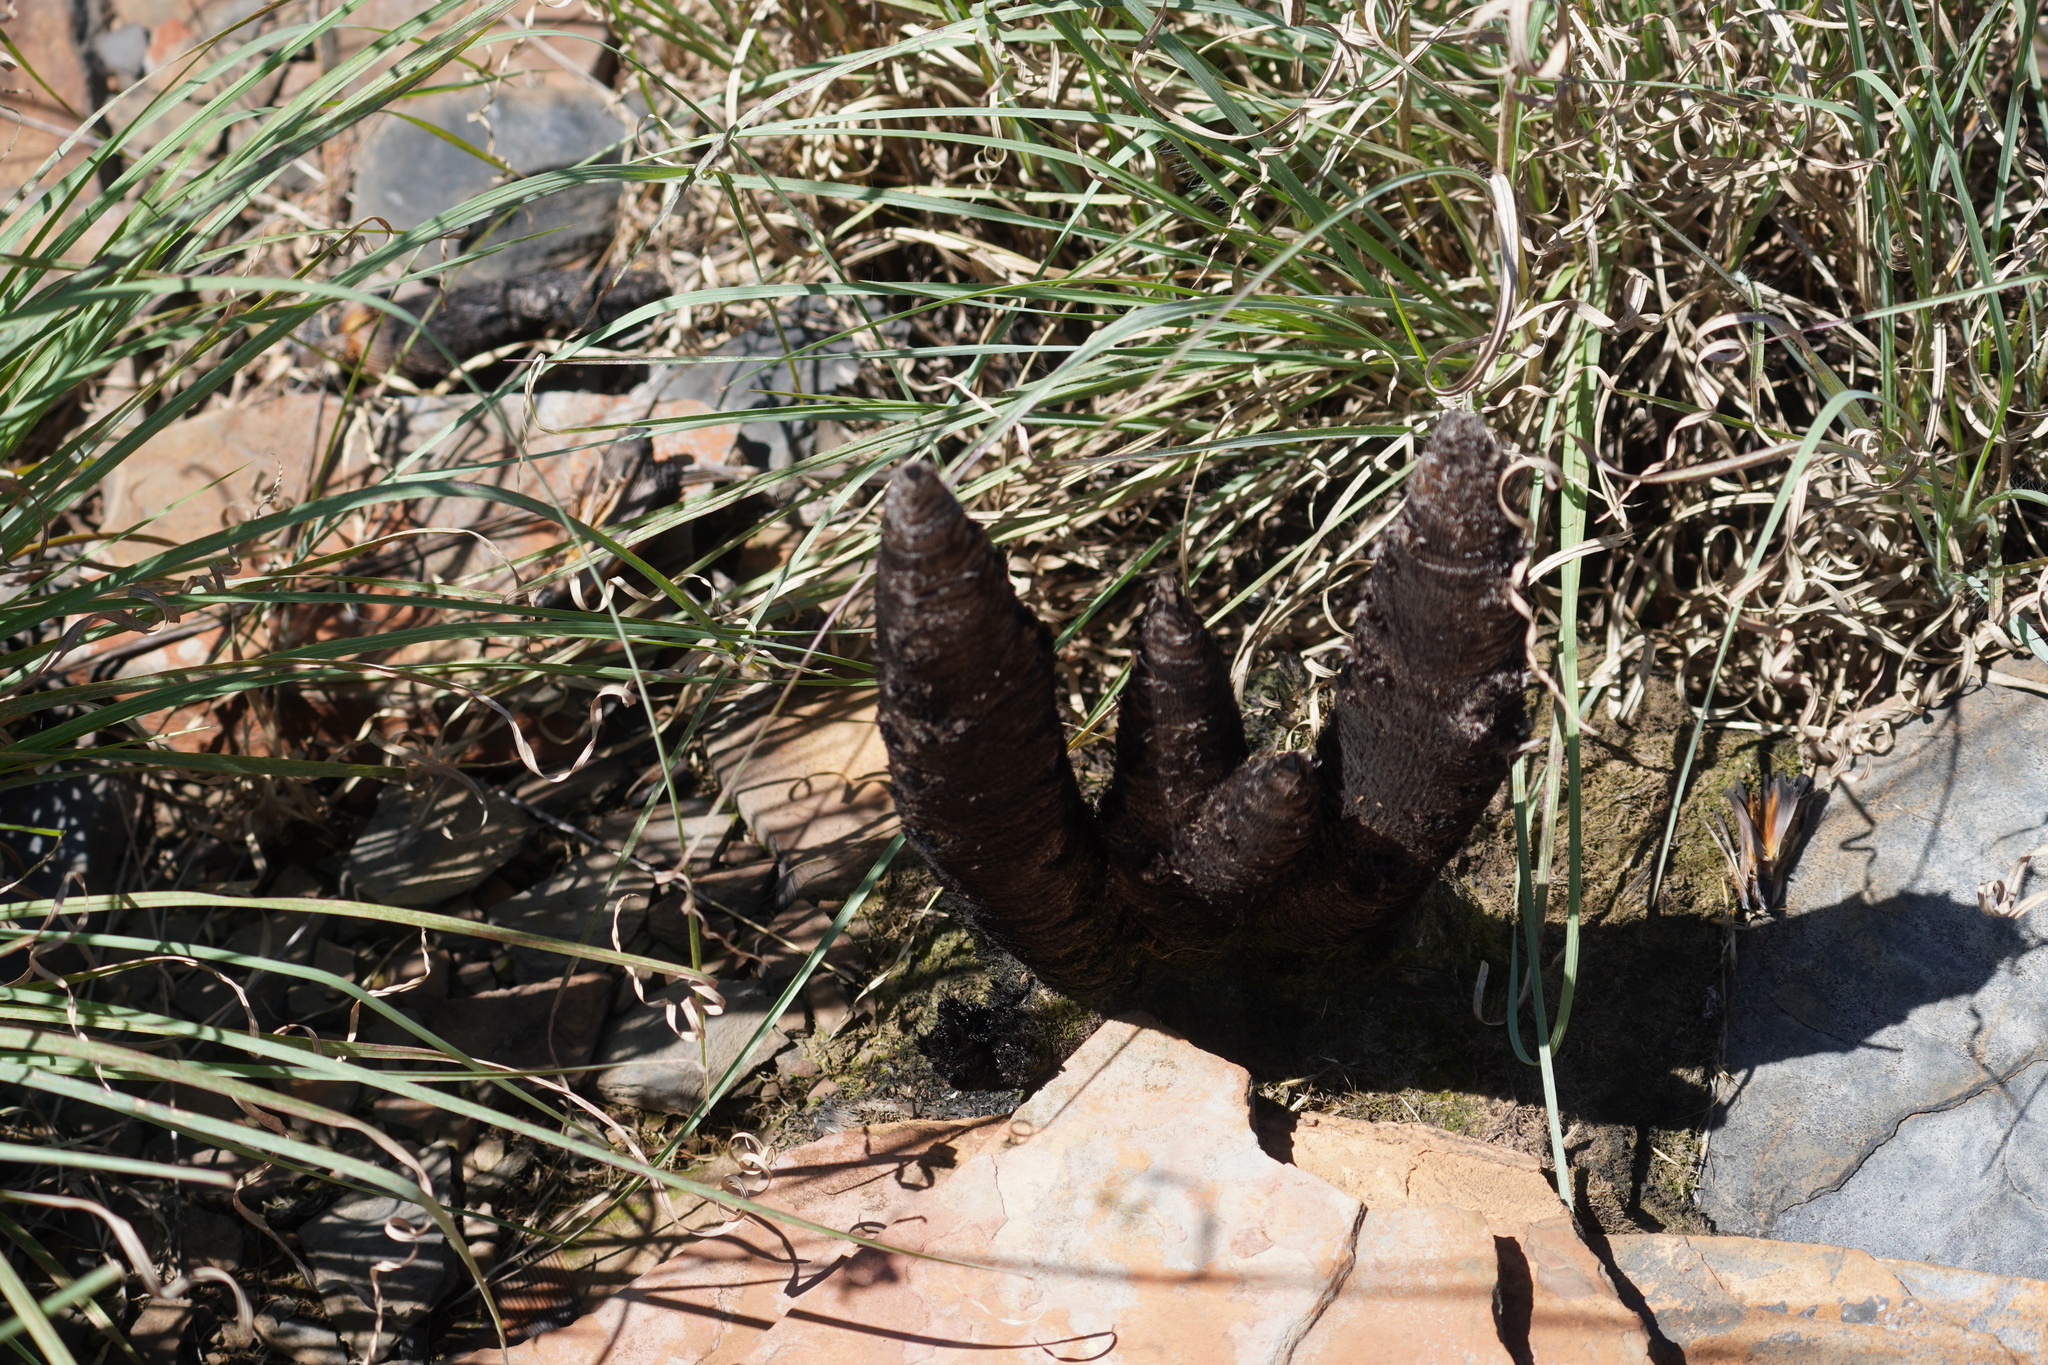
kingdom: Plantae
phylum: Tracheophyta
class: Liliopsida
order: Pandanales
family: Velloziaceae
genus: Xerophyta
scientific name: Xerophyta retinervis
